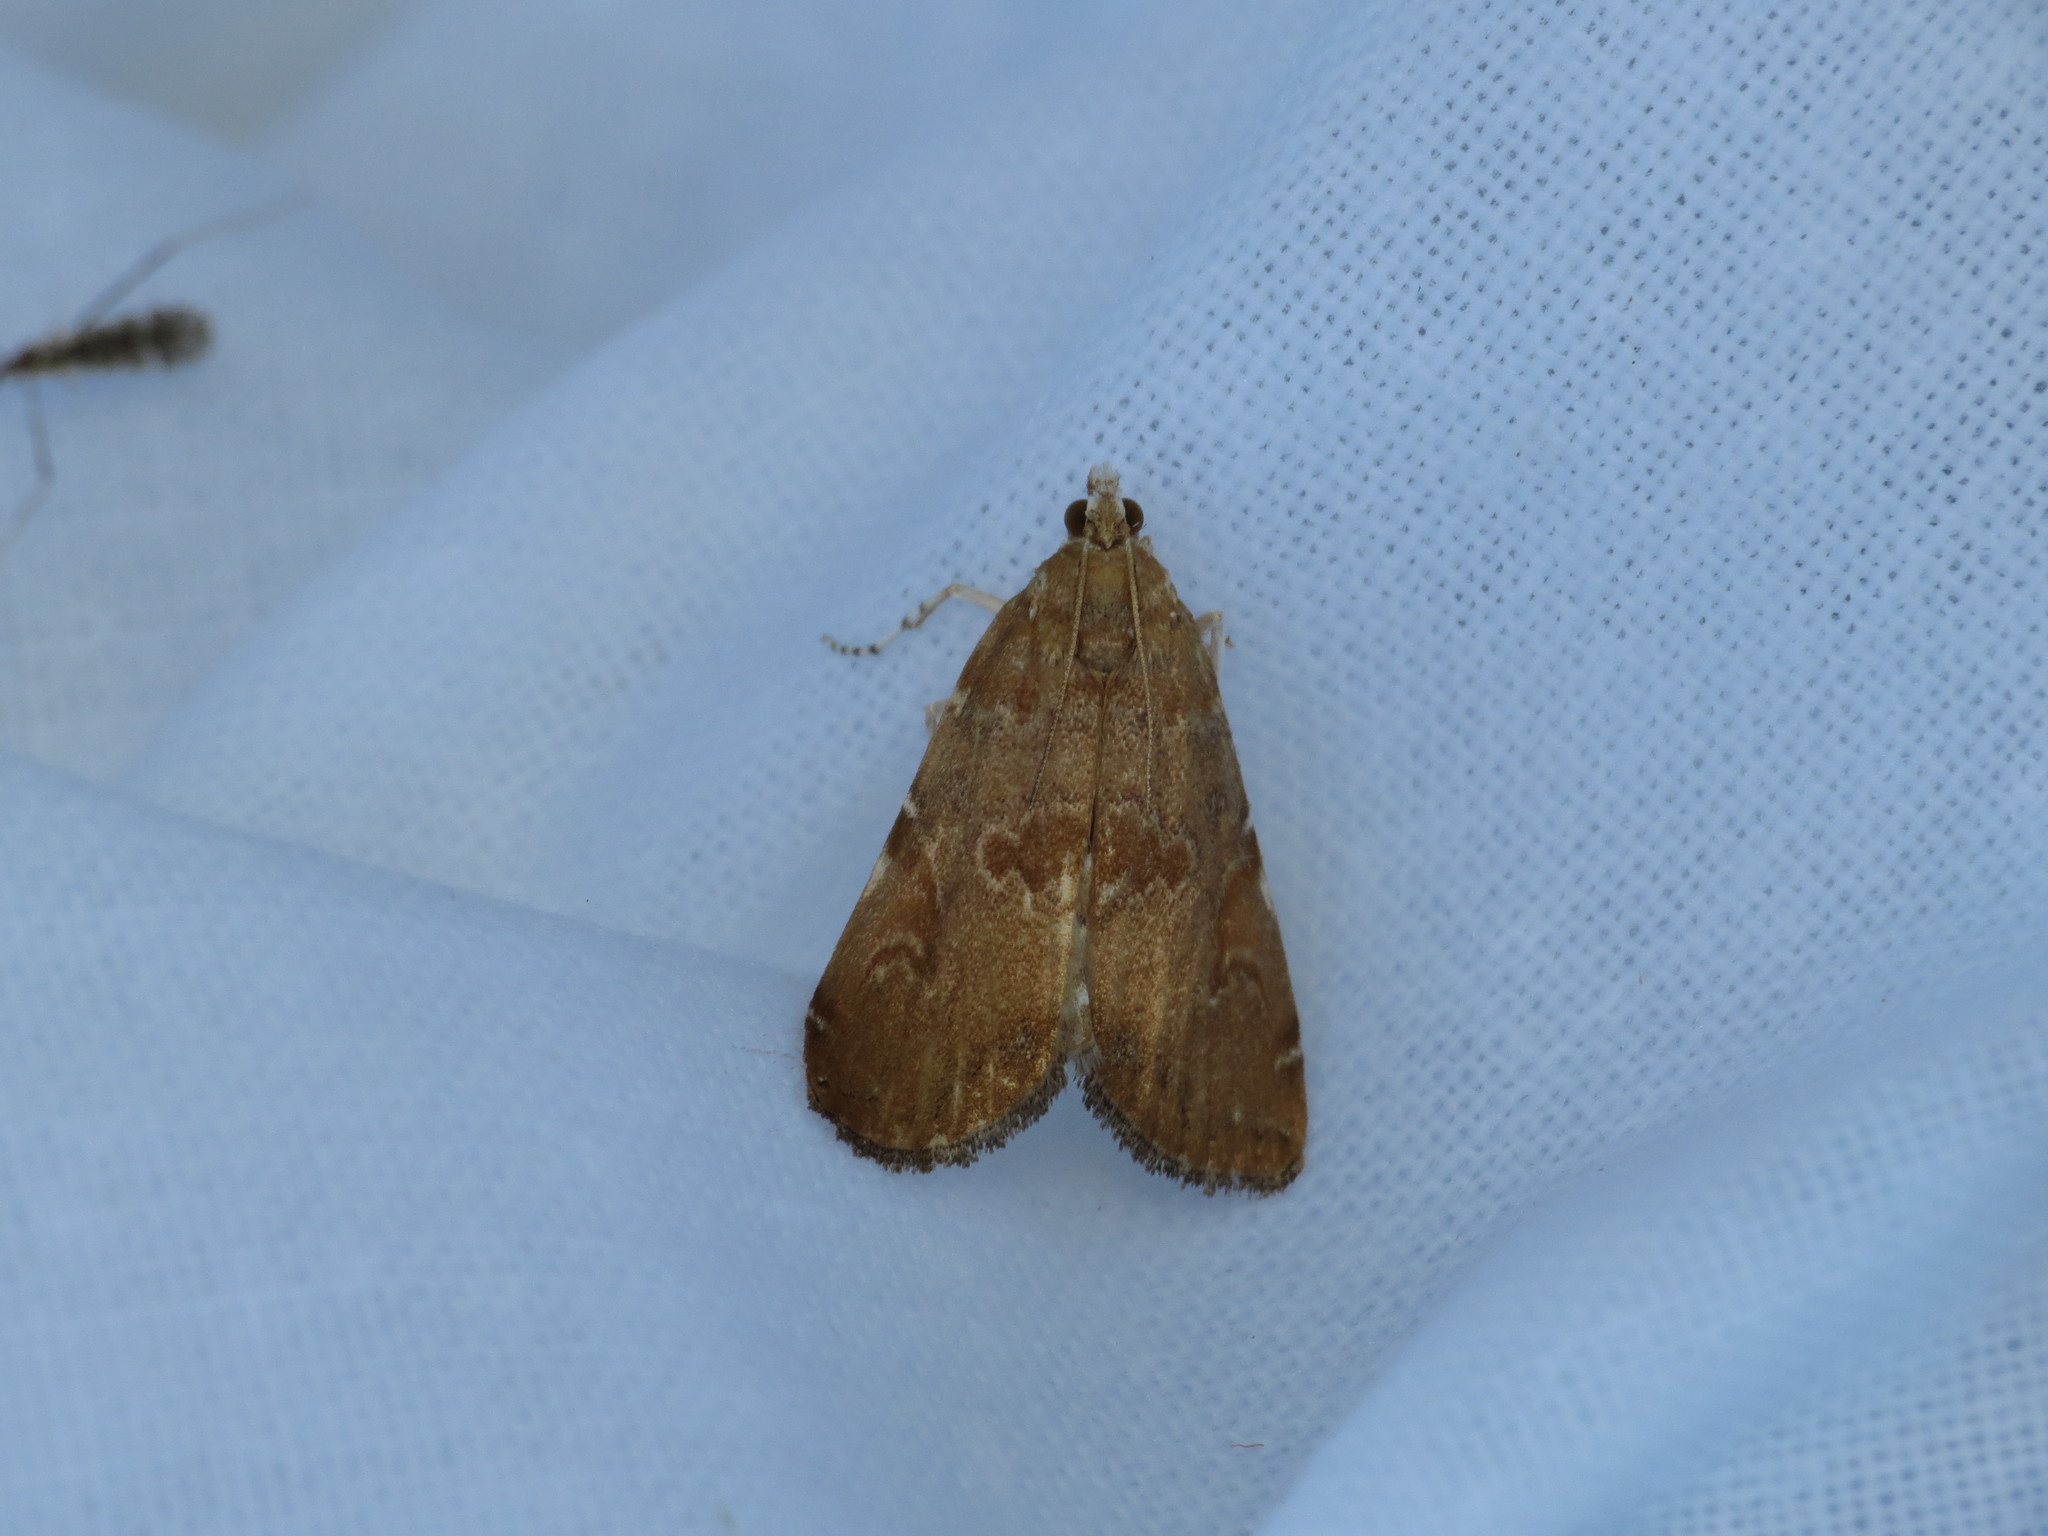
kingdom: Animalia
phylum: Arthropoda
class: Insecta
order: Lepidoptera
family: Crambidae
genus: Elophila
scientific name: Elophila gyralis
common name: Waterlily borer moth
